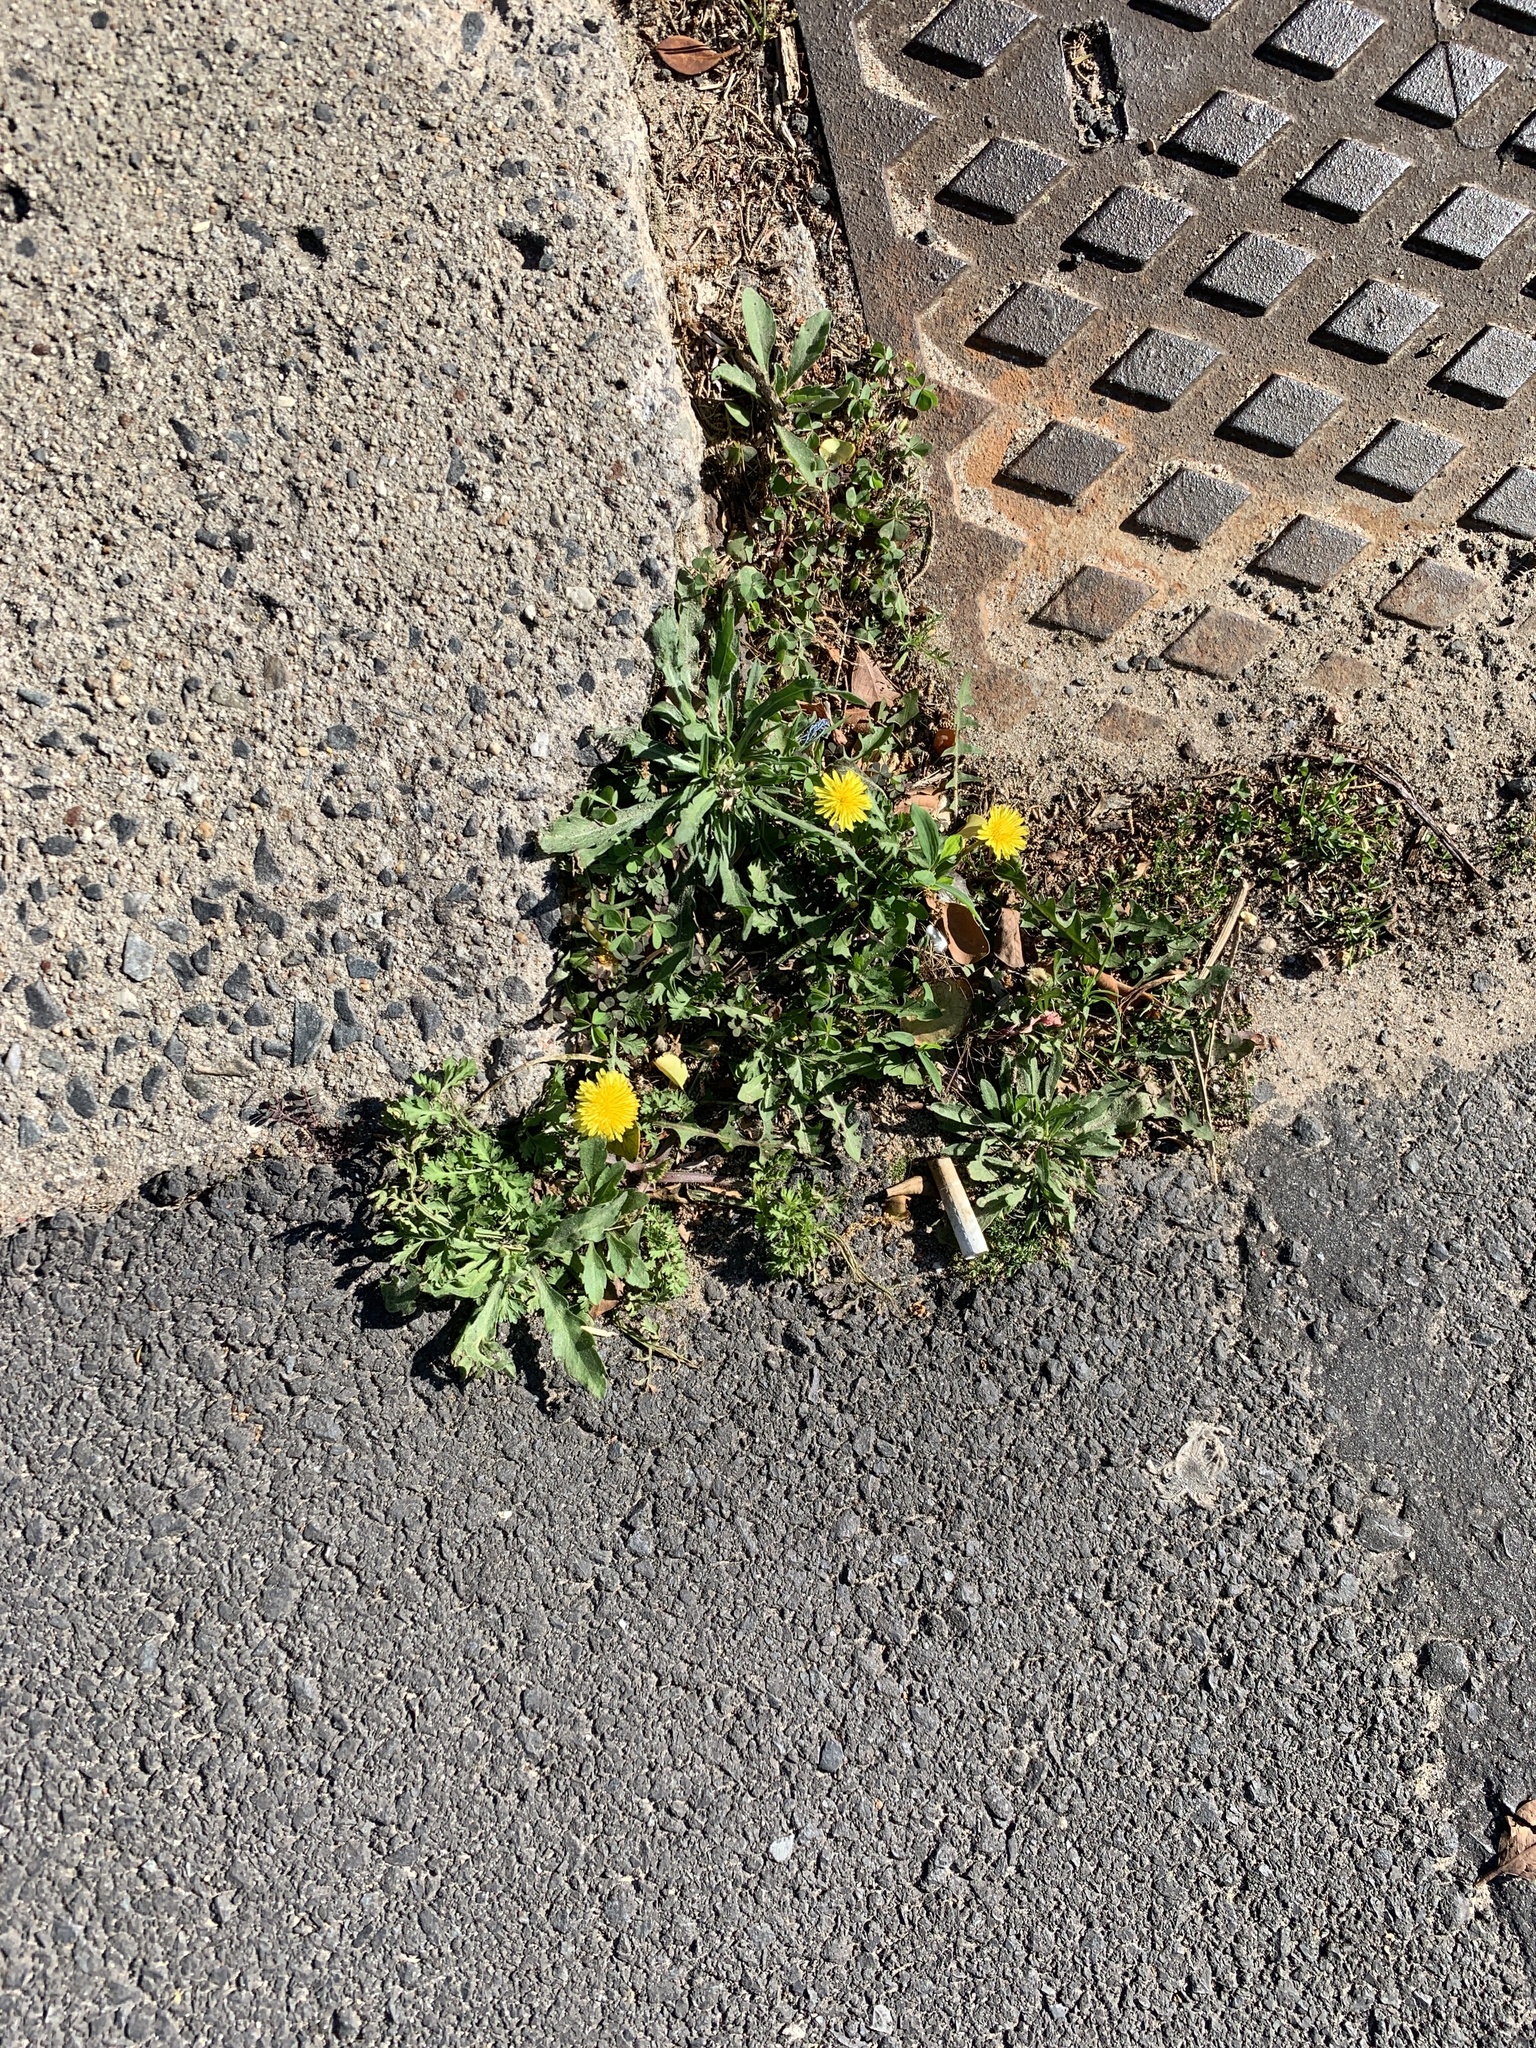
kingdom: Plantae
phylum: Tracheophyta
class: Magnoliopsida
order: Asterales
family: Asteraceae
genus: Taraxacum
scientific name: Taraxacum officinale
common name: Common dandelion
